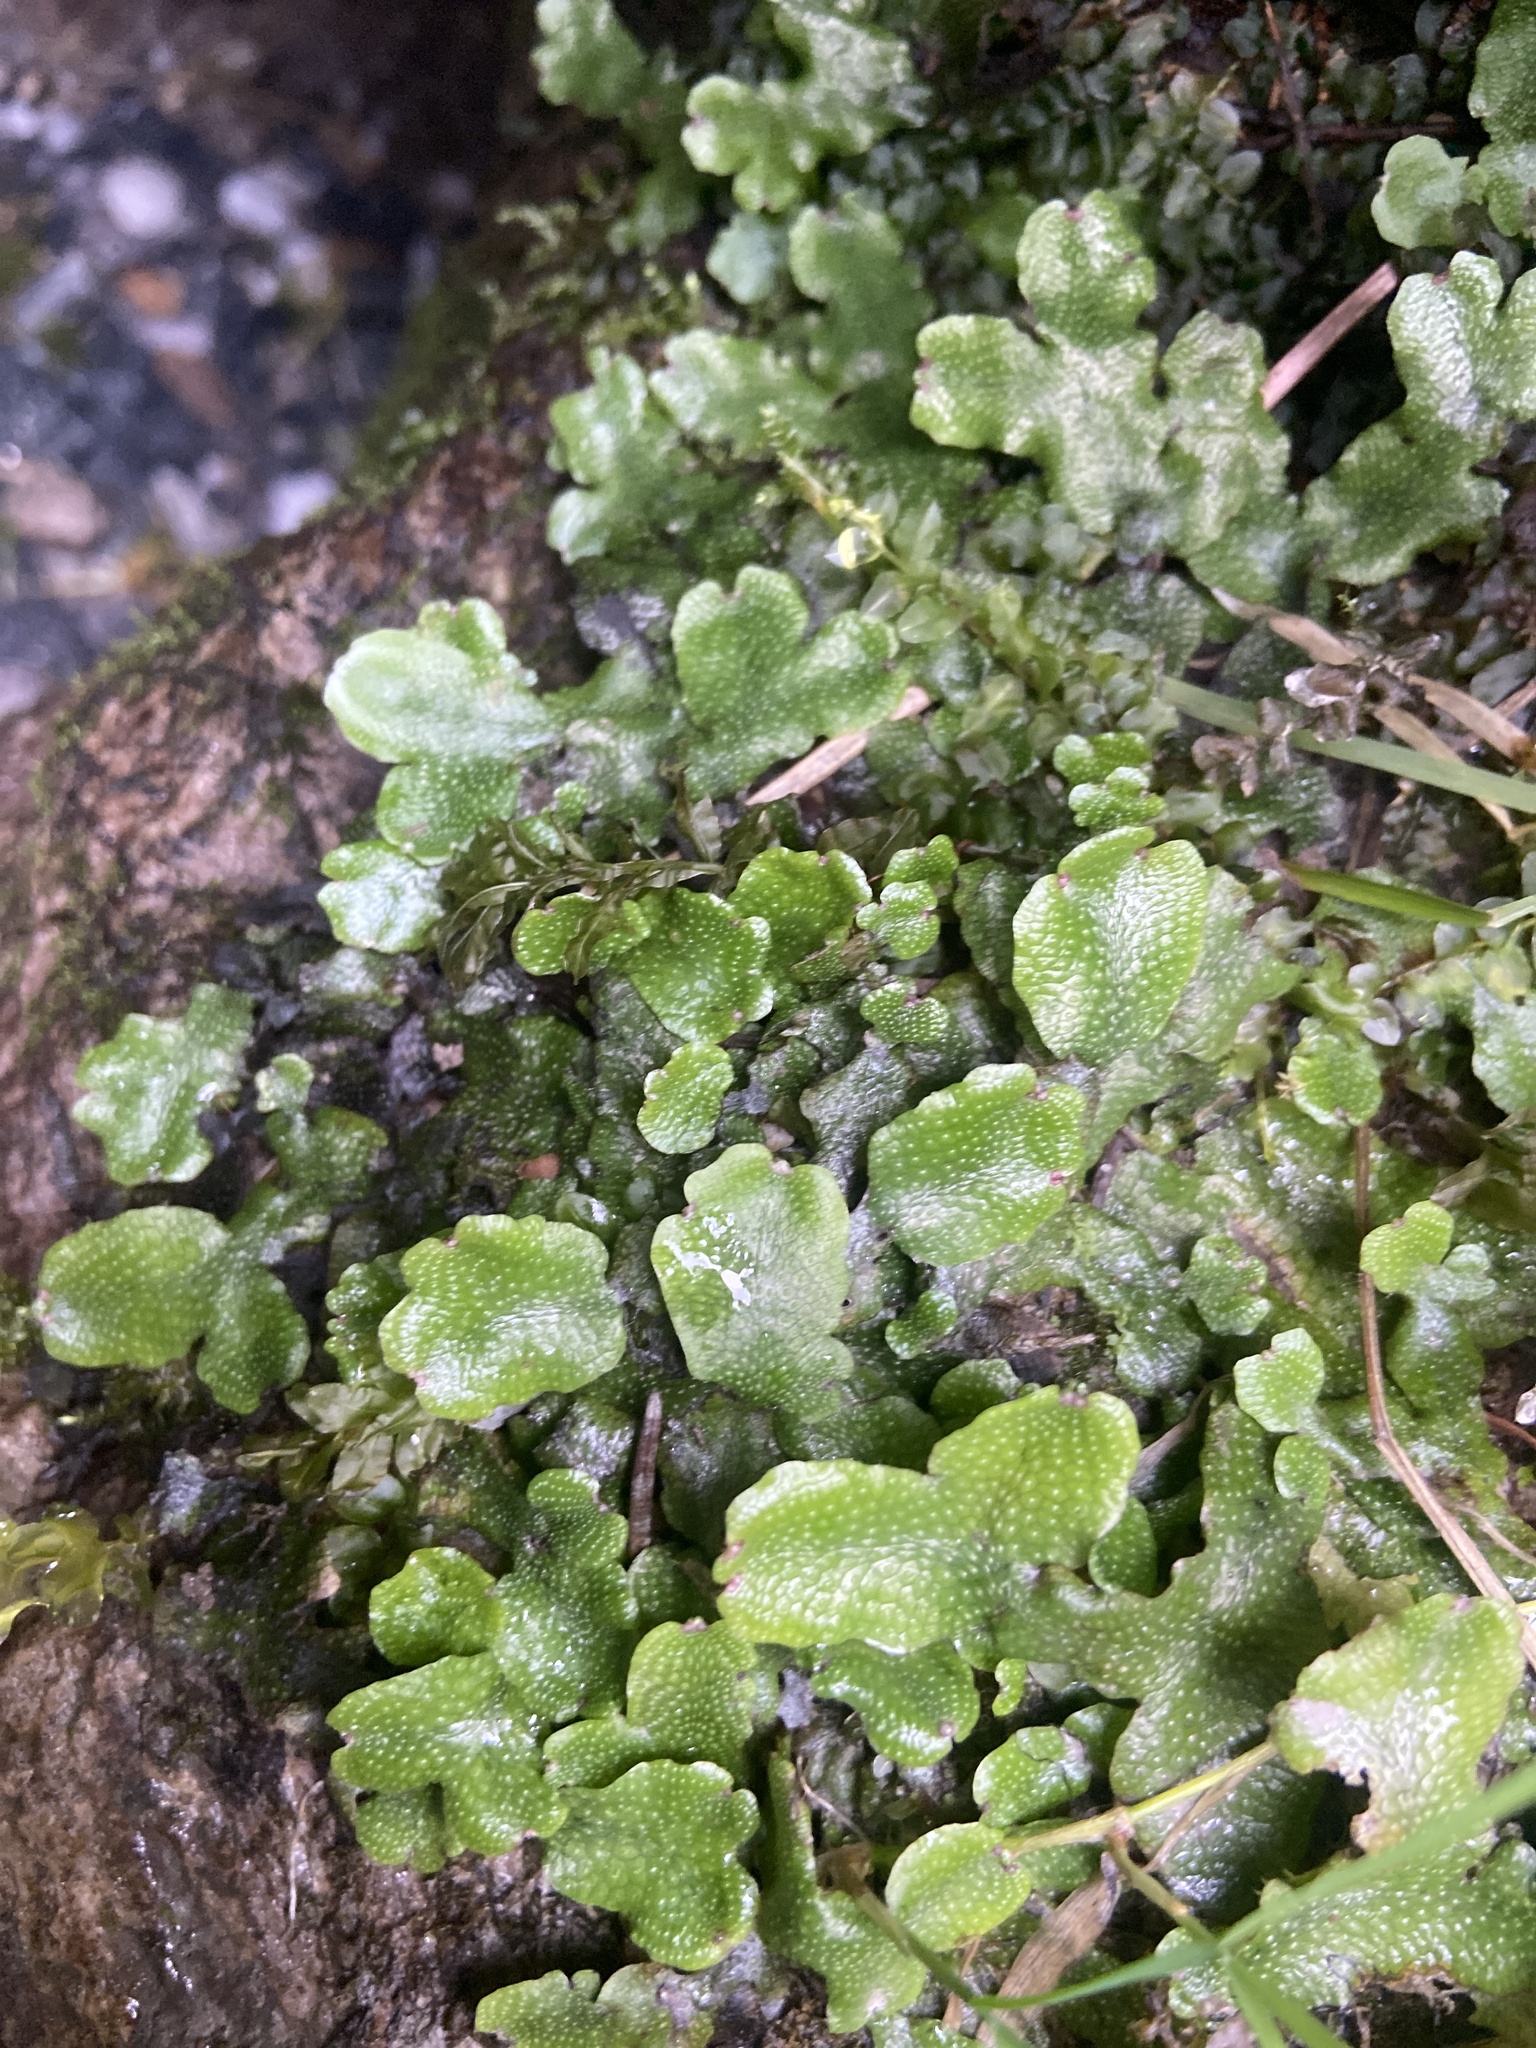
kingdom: Plantae
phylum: Marchantiophyta
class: Marchantiopsida
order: Marchantiales
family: Conocephalaceae
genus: Conocephalum
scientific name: Conocephalum salebrosum
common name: Cat-tongue liverwort
